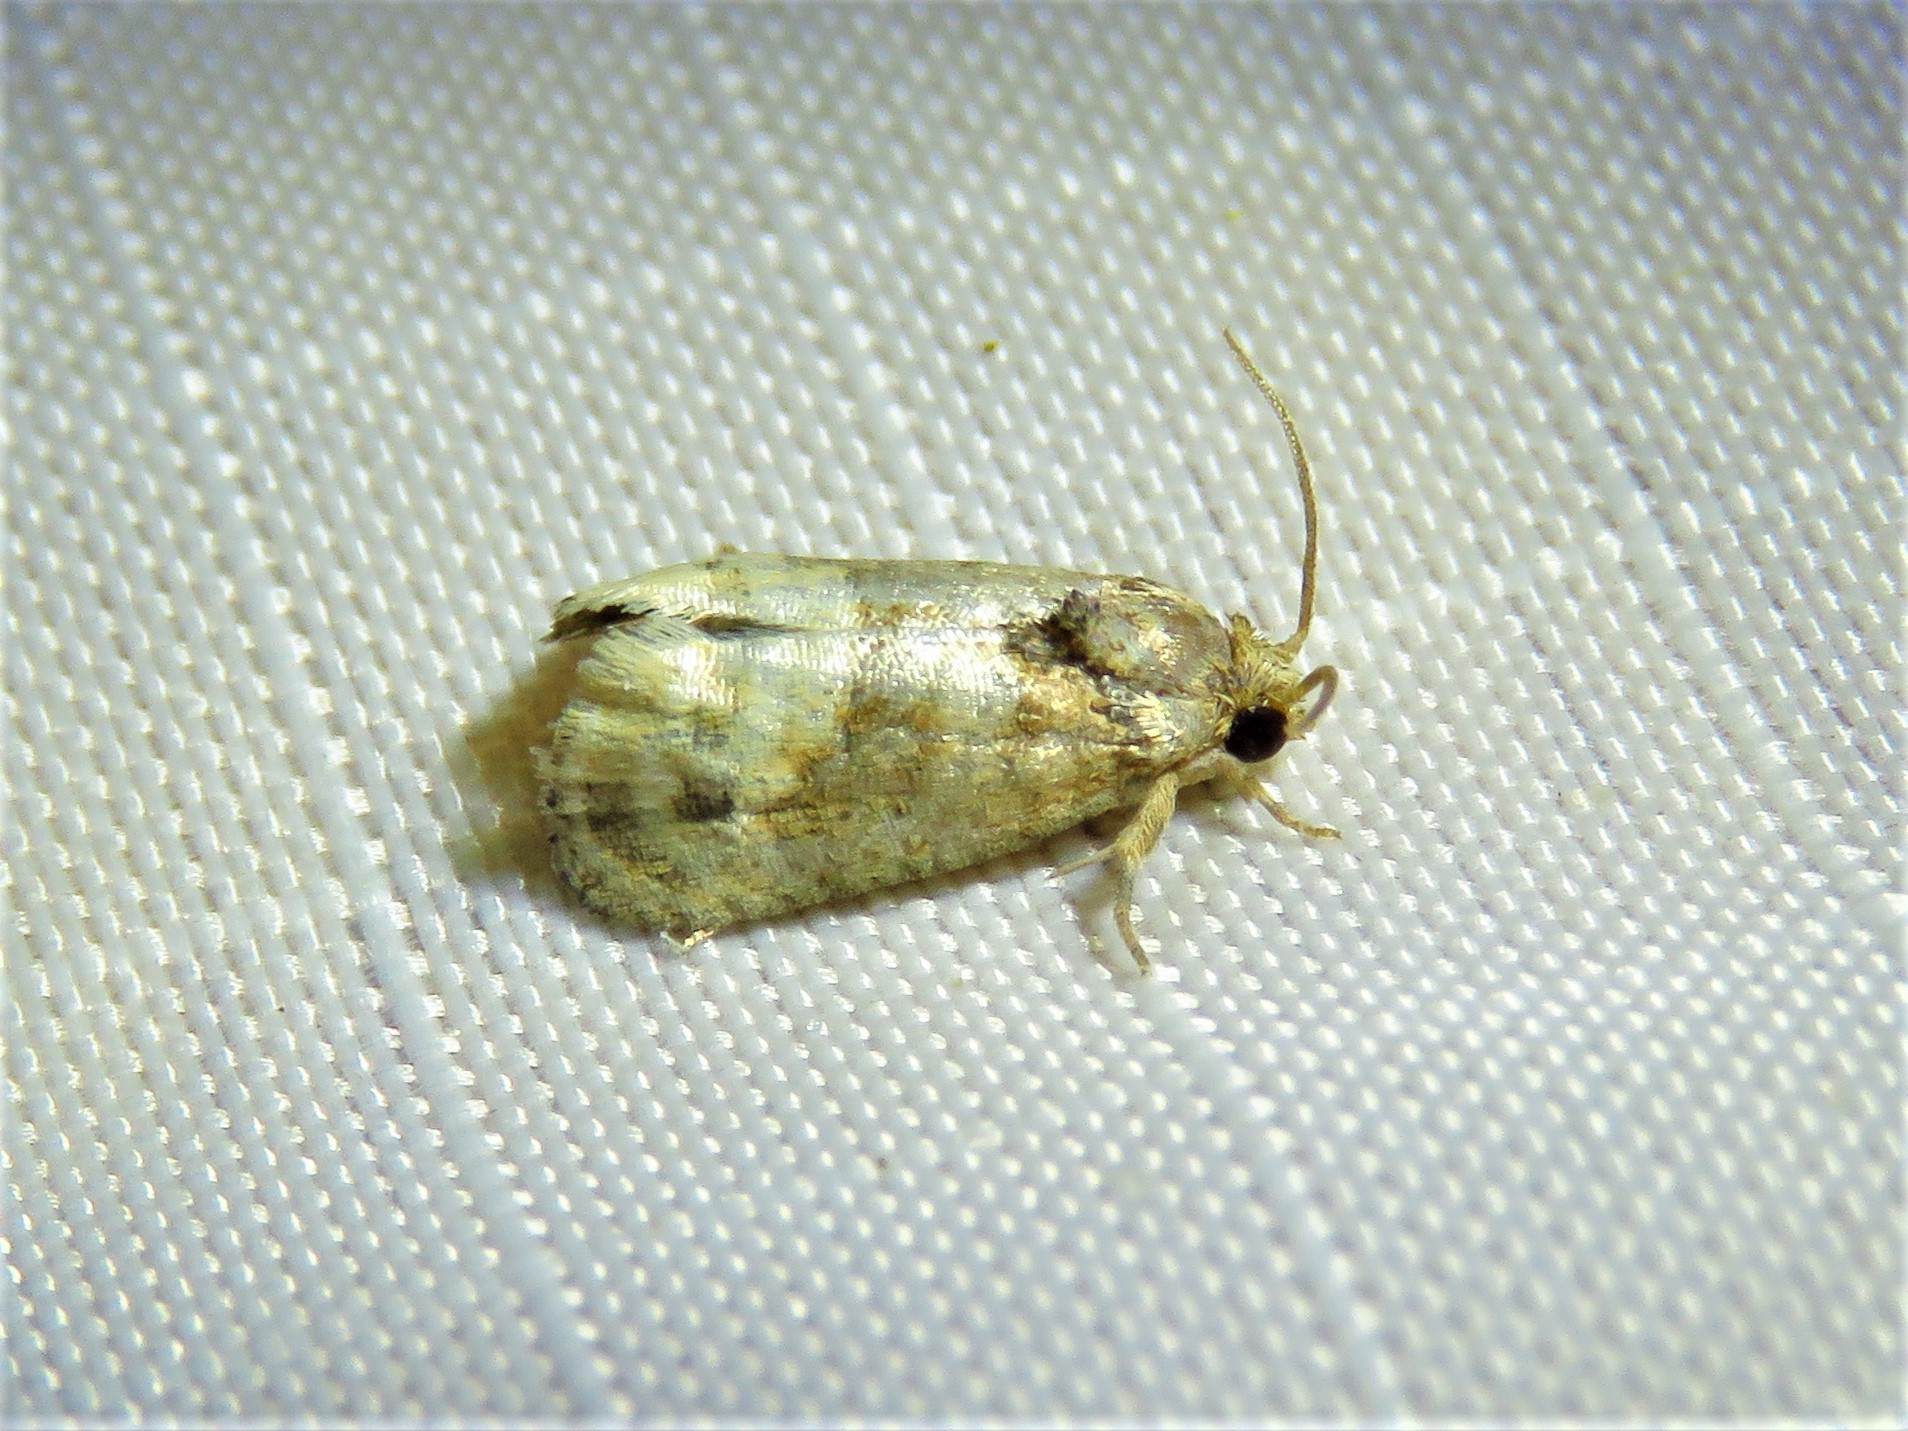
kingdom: Animalia
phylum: Arthropoda
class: Insecta
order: Lepidoptera
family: Tortricidae
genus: Ecdytolopha
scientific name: Ecdytolopha mana
